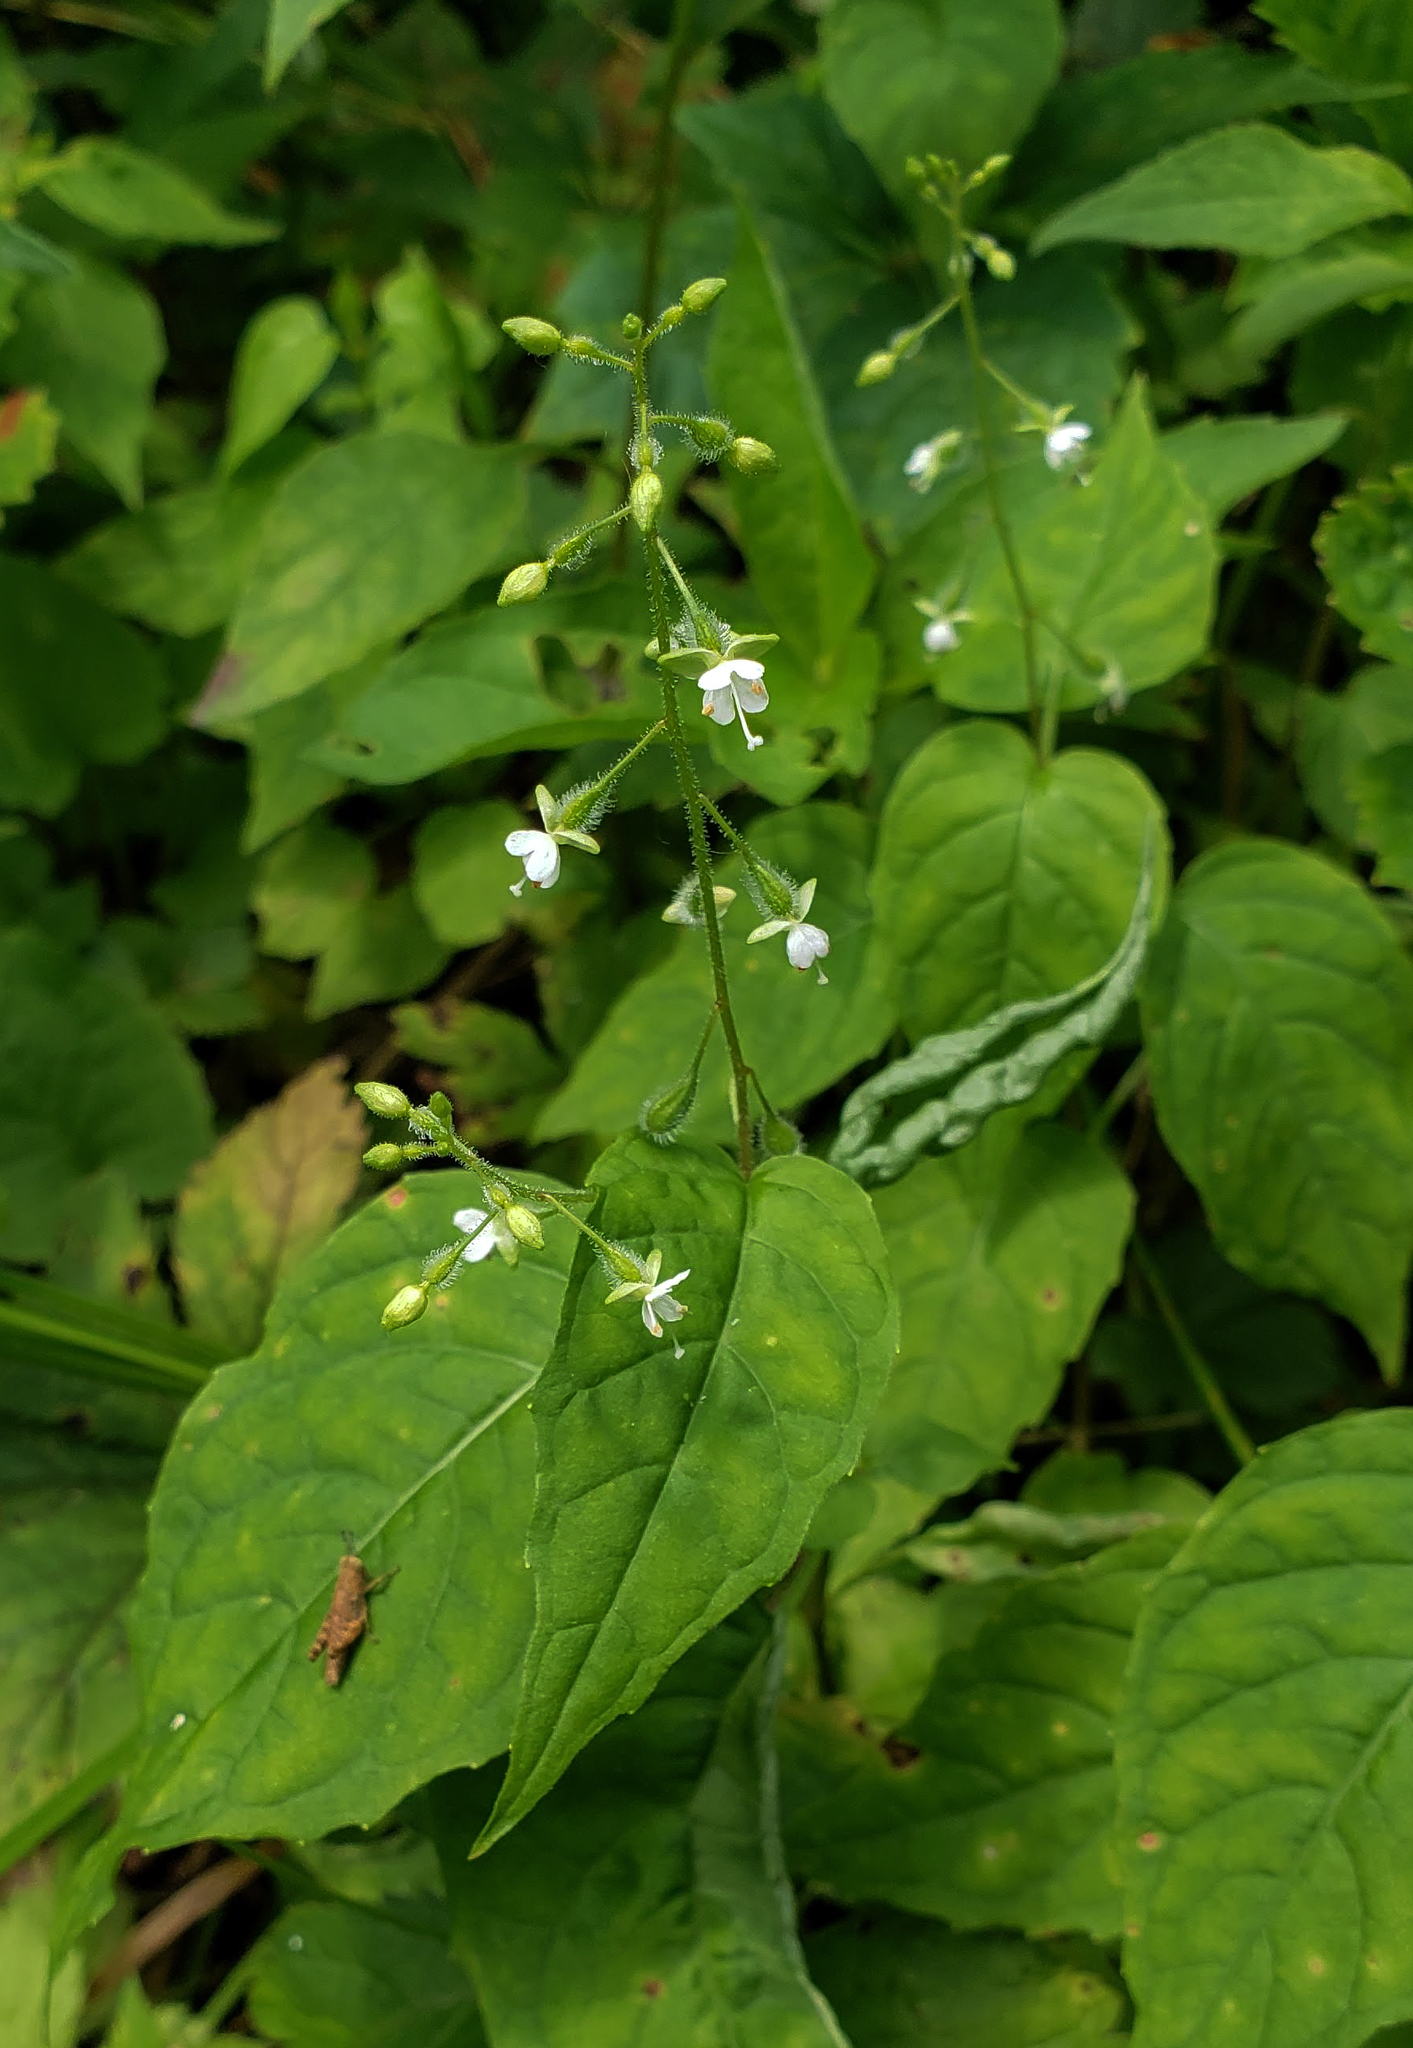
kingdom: Plantae
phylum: Tracheophyta
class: Magnoliopsida
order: Myrtales
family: Onagraceae
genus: Circaea
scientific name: Circaea canadensis
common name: Broad-leaved enchanter's nightshade
